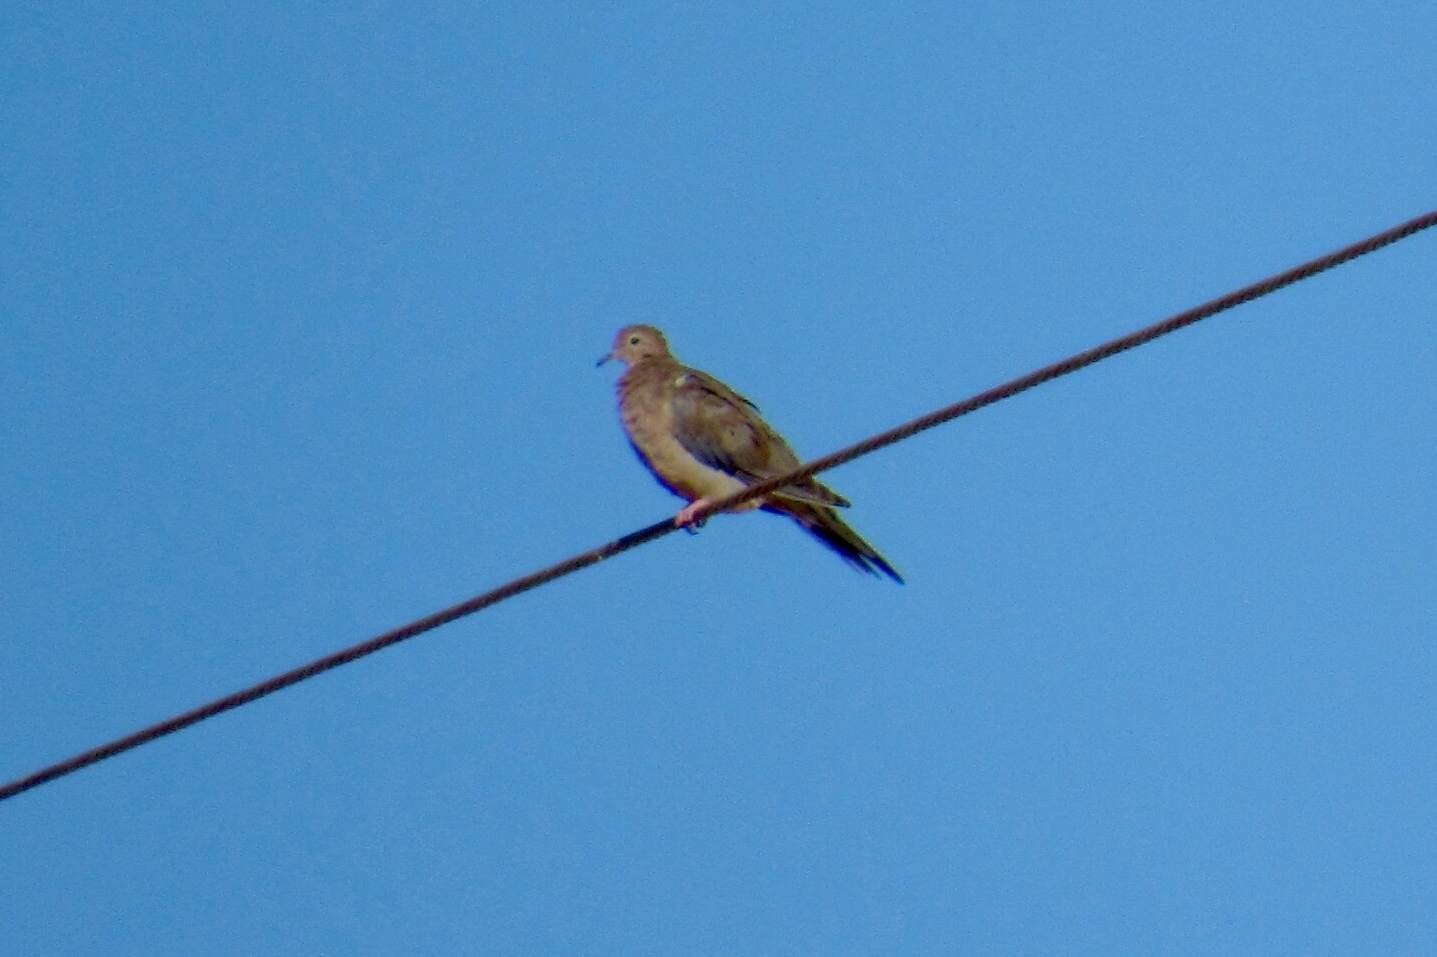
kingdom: Animalia
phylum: Chordata
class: Aves
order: Columbiformes
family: Columbidae
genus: Zenaida
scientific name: Zenaida macroura
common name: Mourning dove
